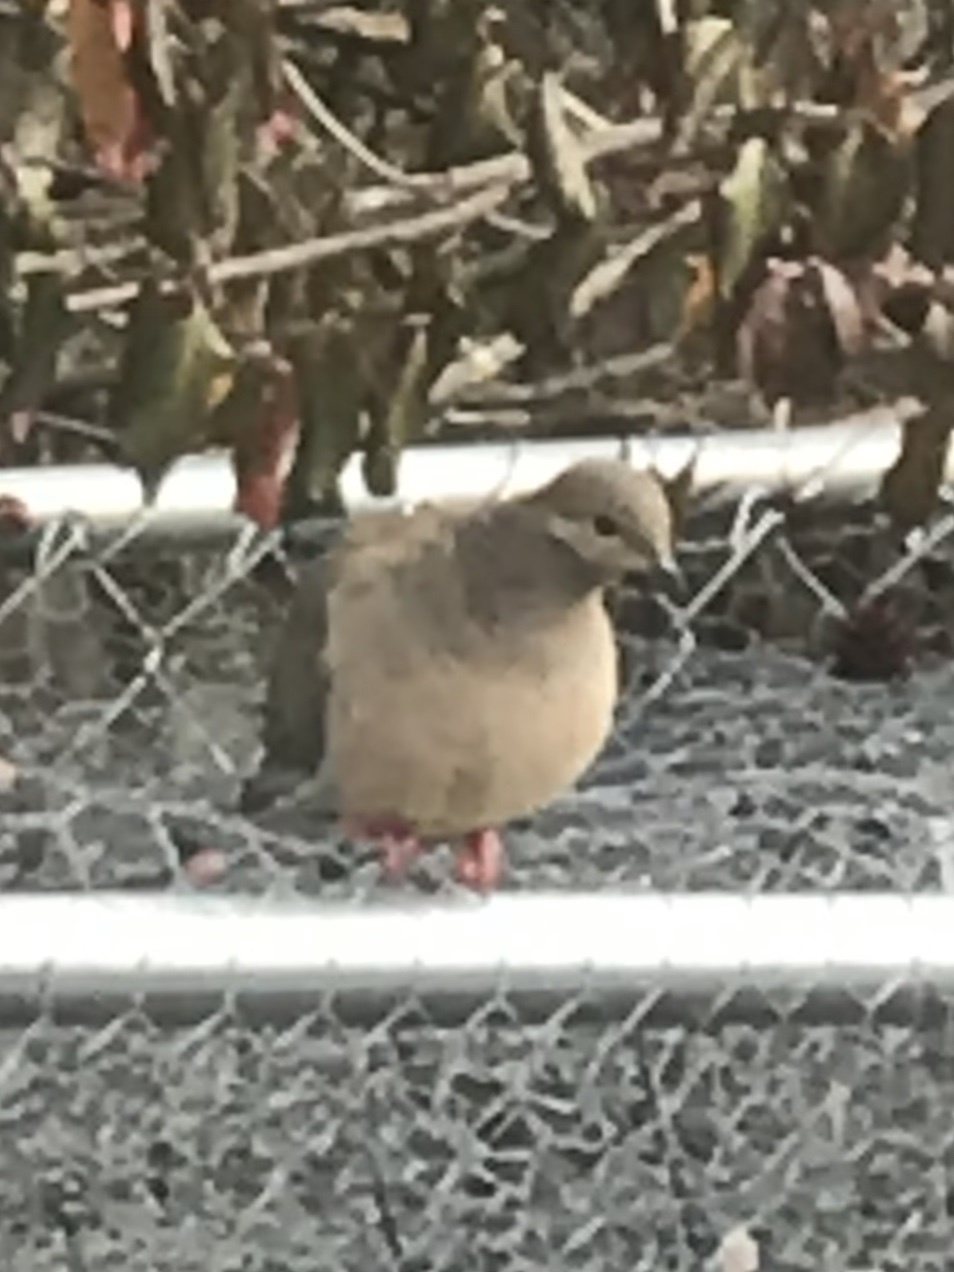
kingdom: Animalia
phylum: Chordata
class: Aves
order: Columbiformes
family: Columbidae
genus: Zenaida
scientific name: Zenaida macroura
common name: Mourning dove
